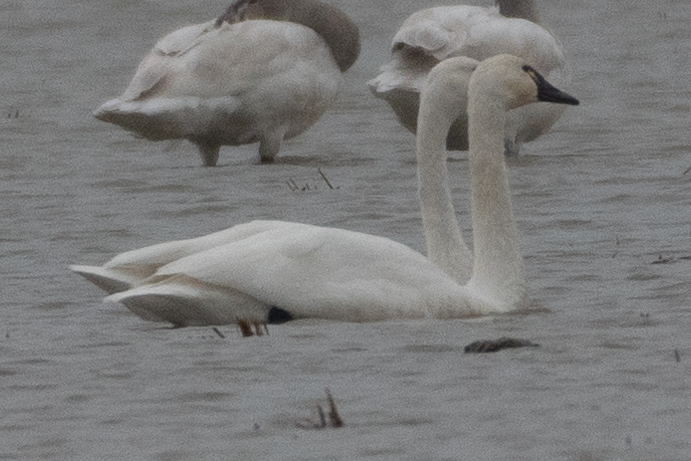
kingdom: Animalia
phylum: Chordata
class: Aves
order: Anseriformes
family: Anatidae
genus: Cygnus
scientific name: Cygnus columbianus
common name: Tundra swan
